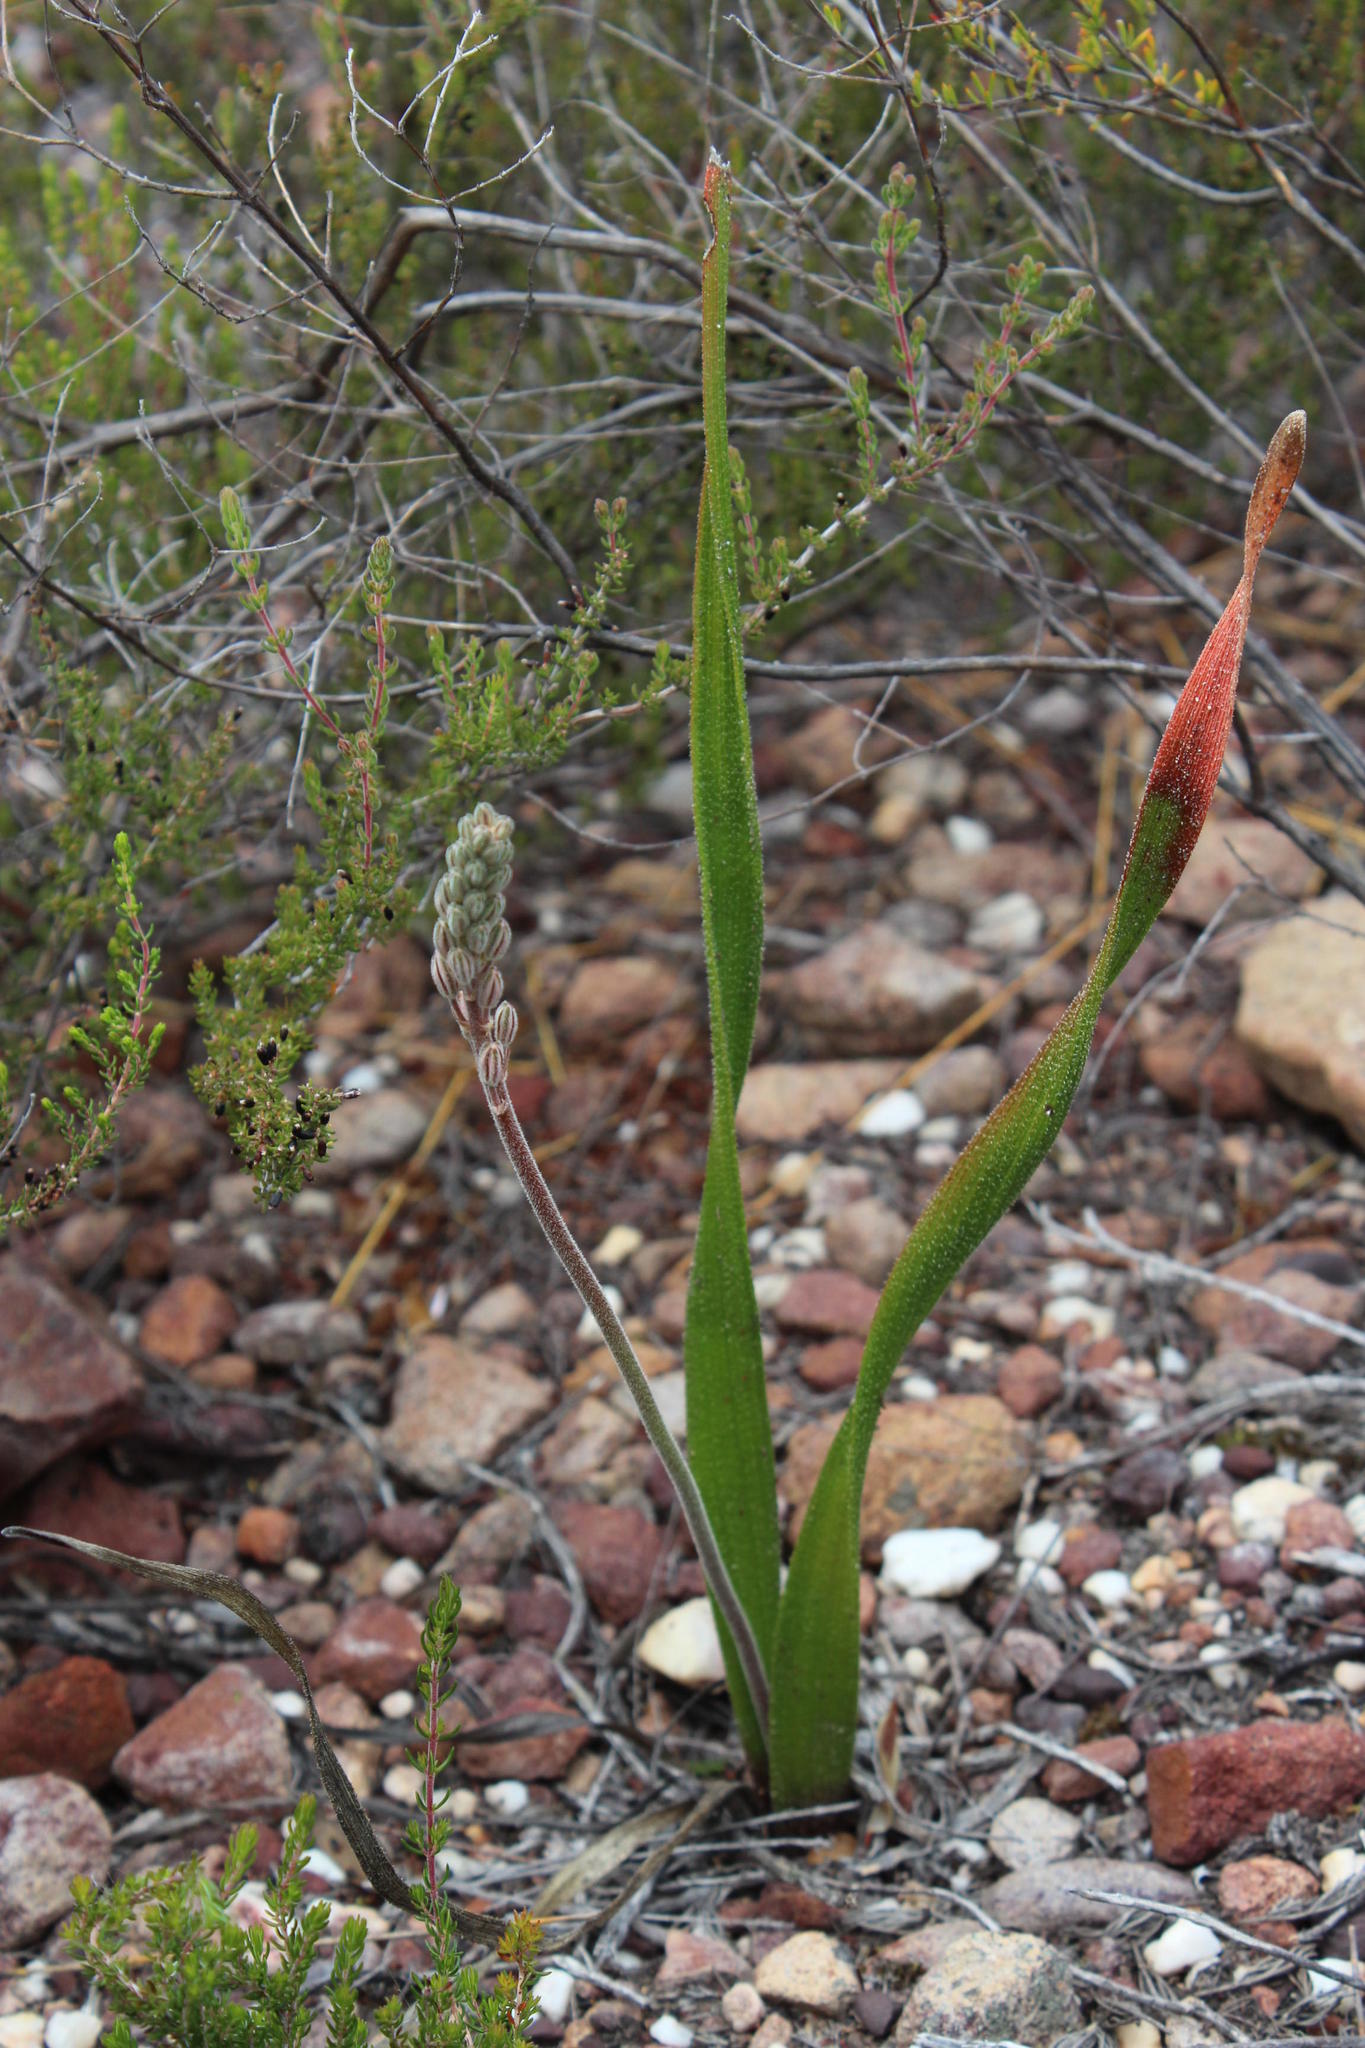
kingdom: Plantae
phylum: Tracheophyta
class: Liliopsida
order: Asparagales
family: Asphodelaceae
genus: Trachyandra
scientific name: Trachyandra montana
